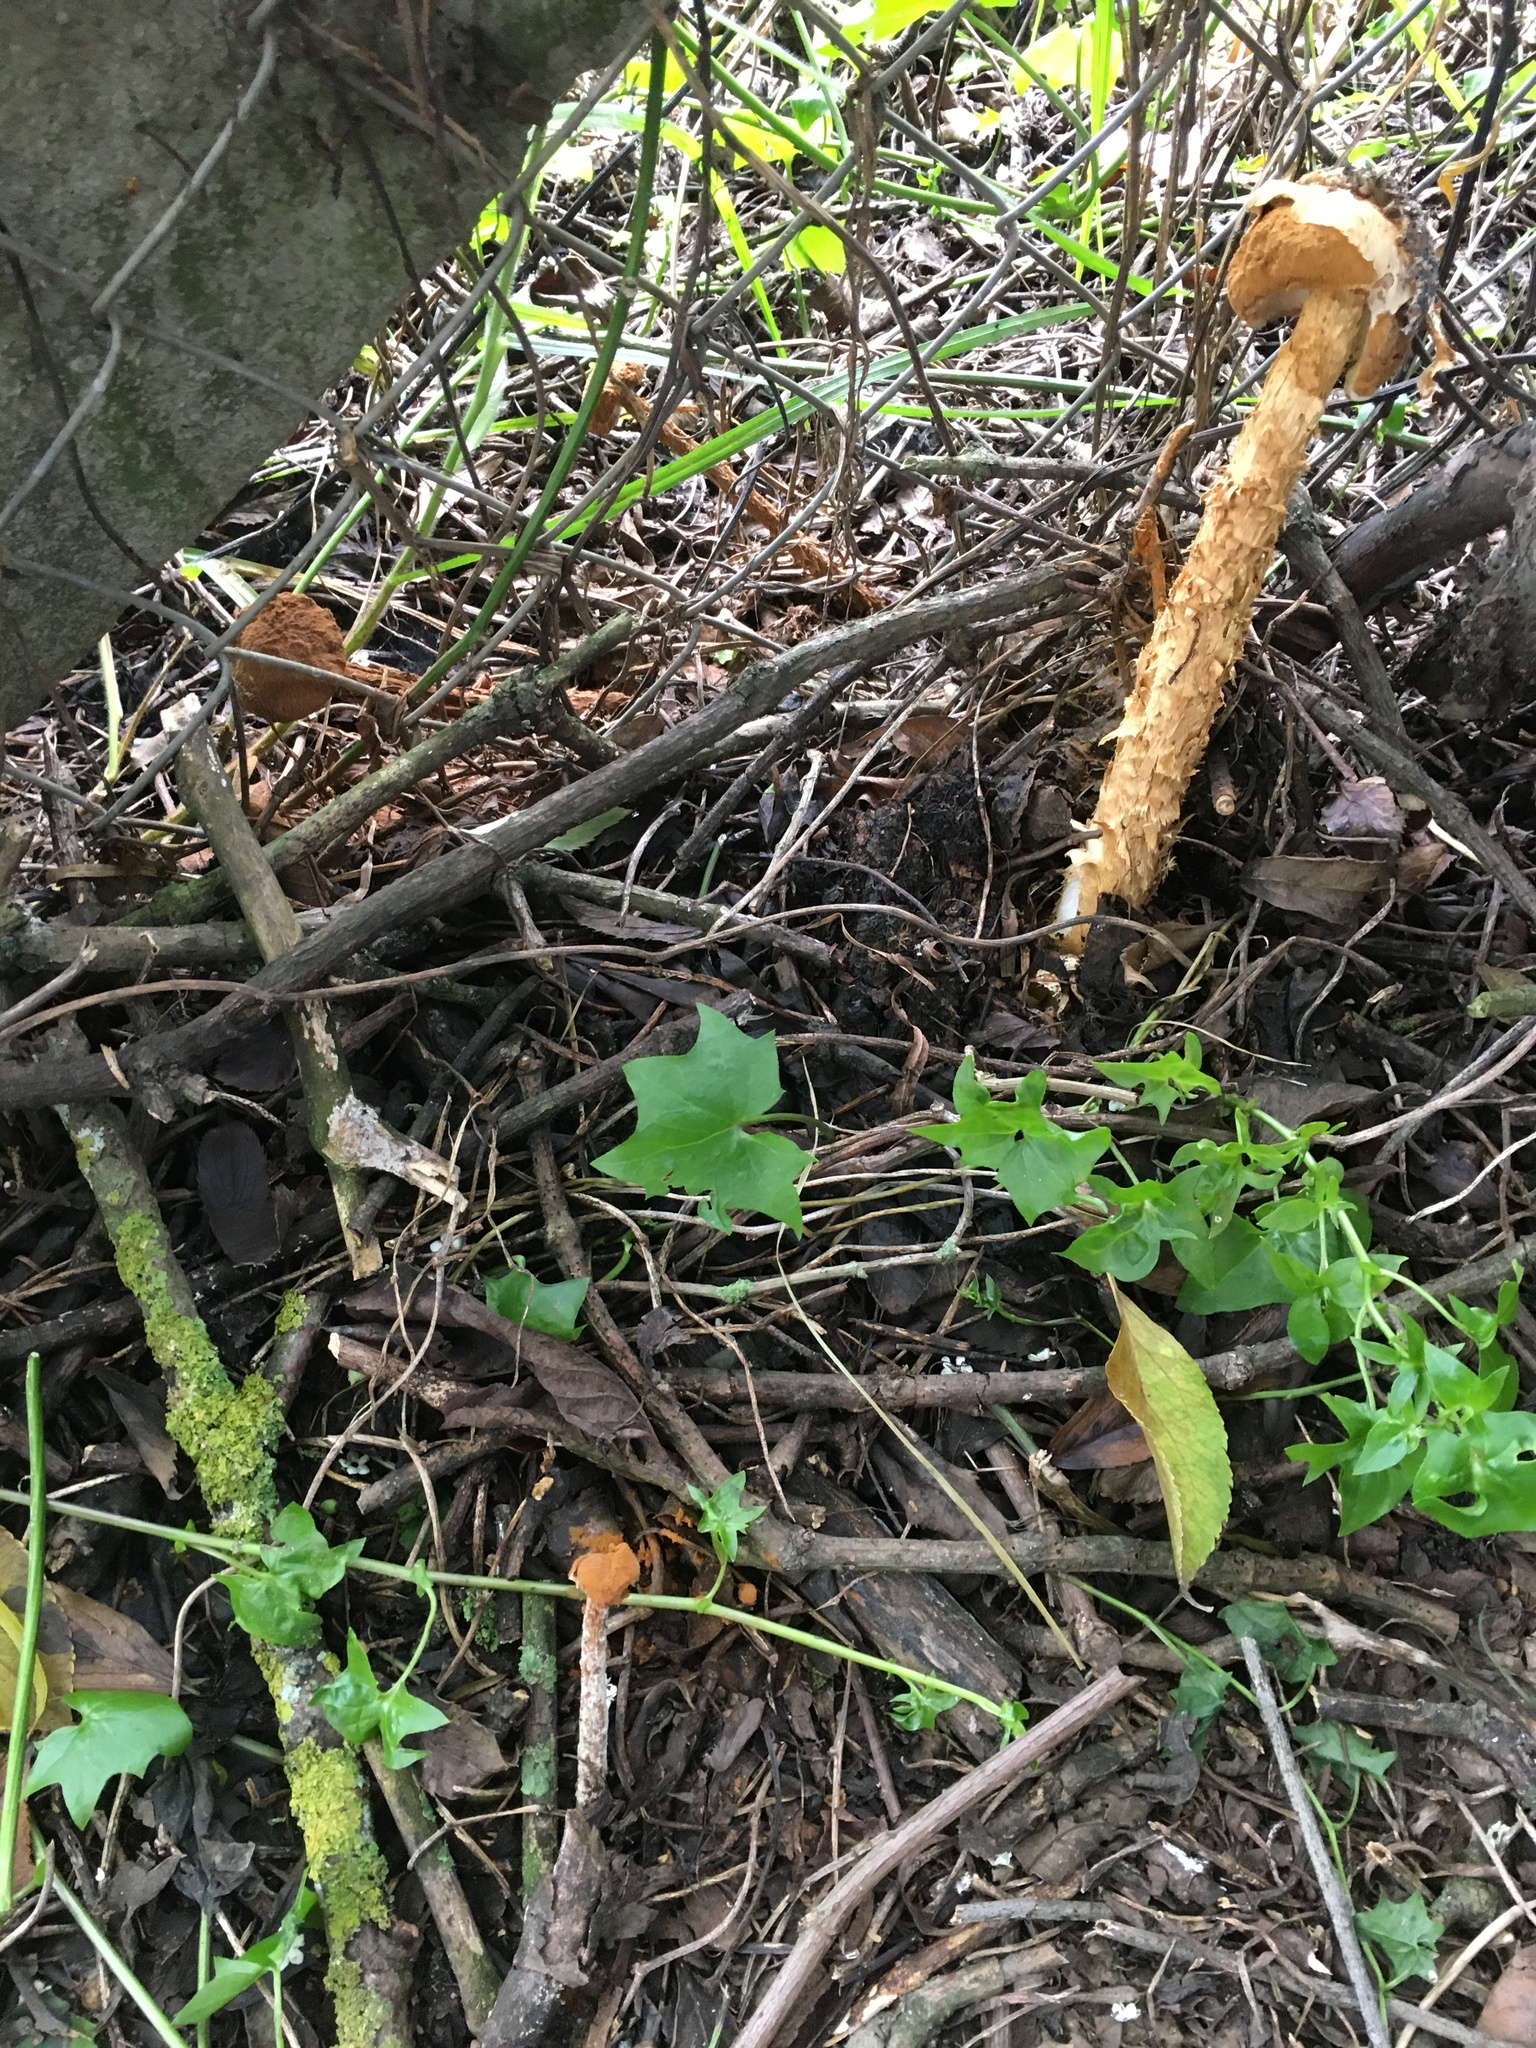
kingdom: Fungi
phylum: Basidiomycota
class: Agaricomycetes
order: Agaricales
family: Agaricaceae
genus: Battarrea
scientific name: Battarrea phalloides
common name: Sandy stiltball
